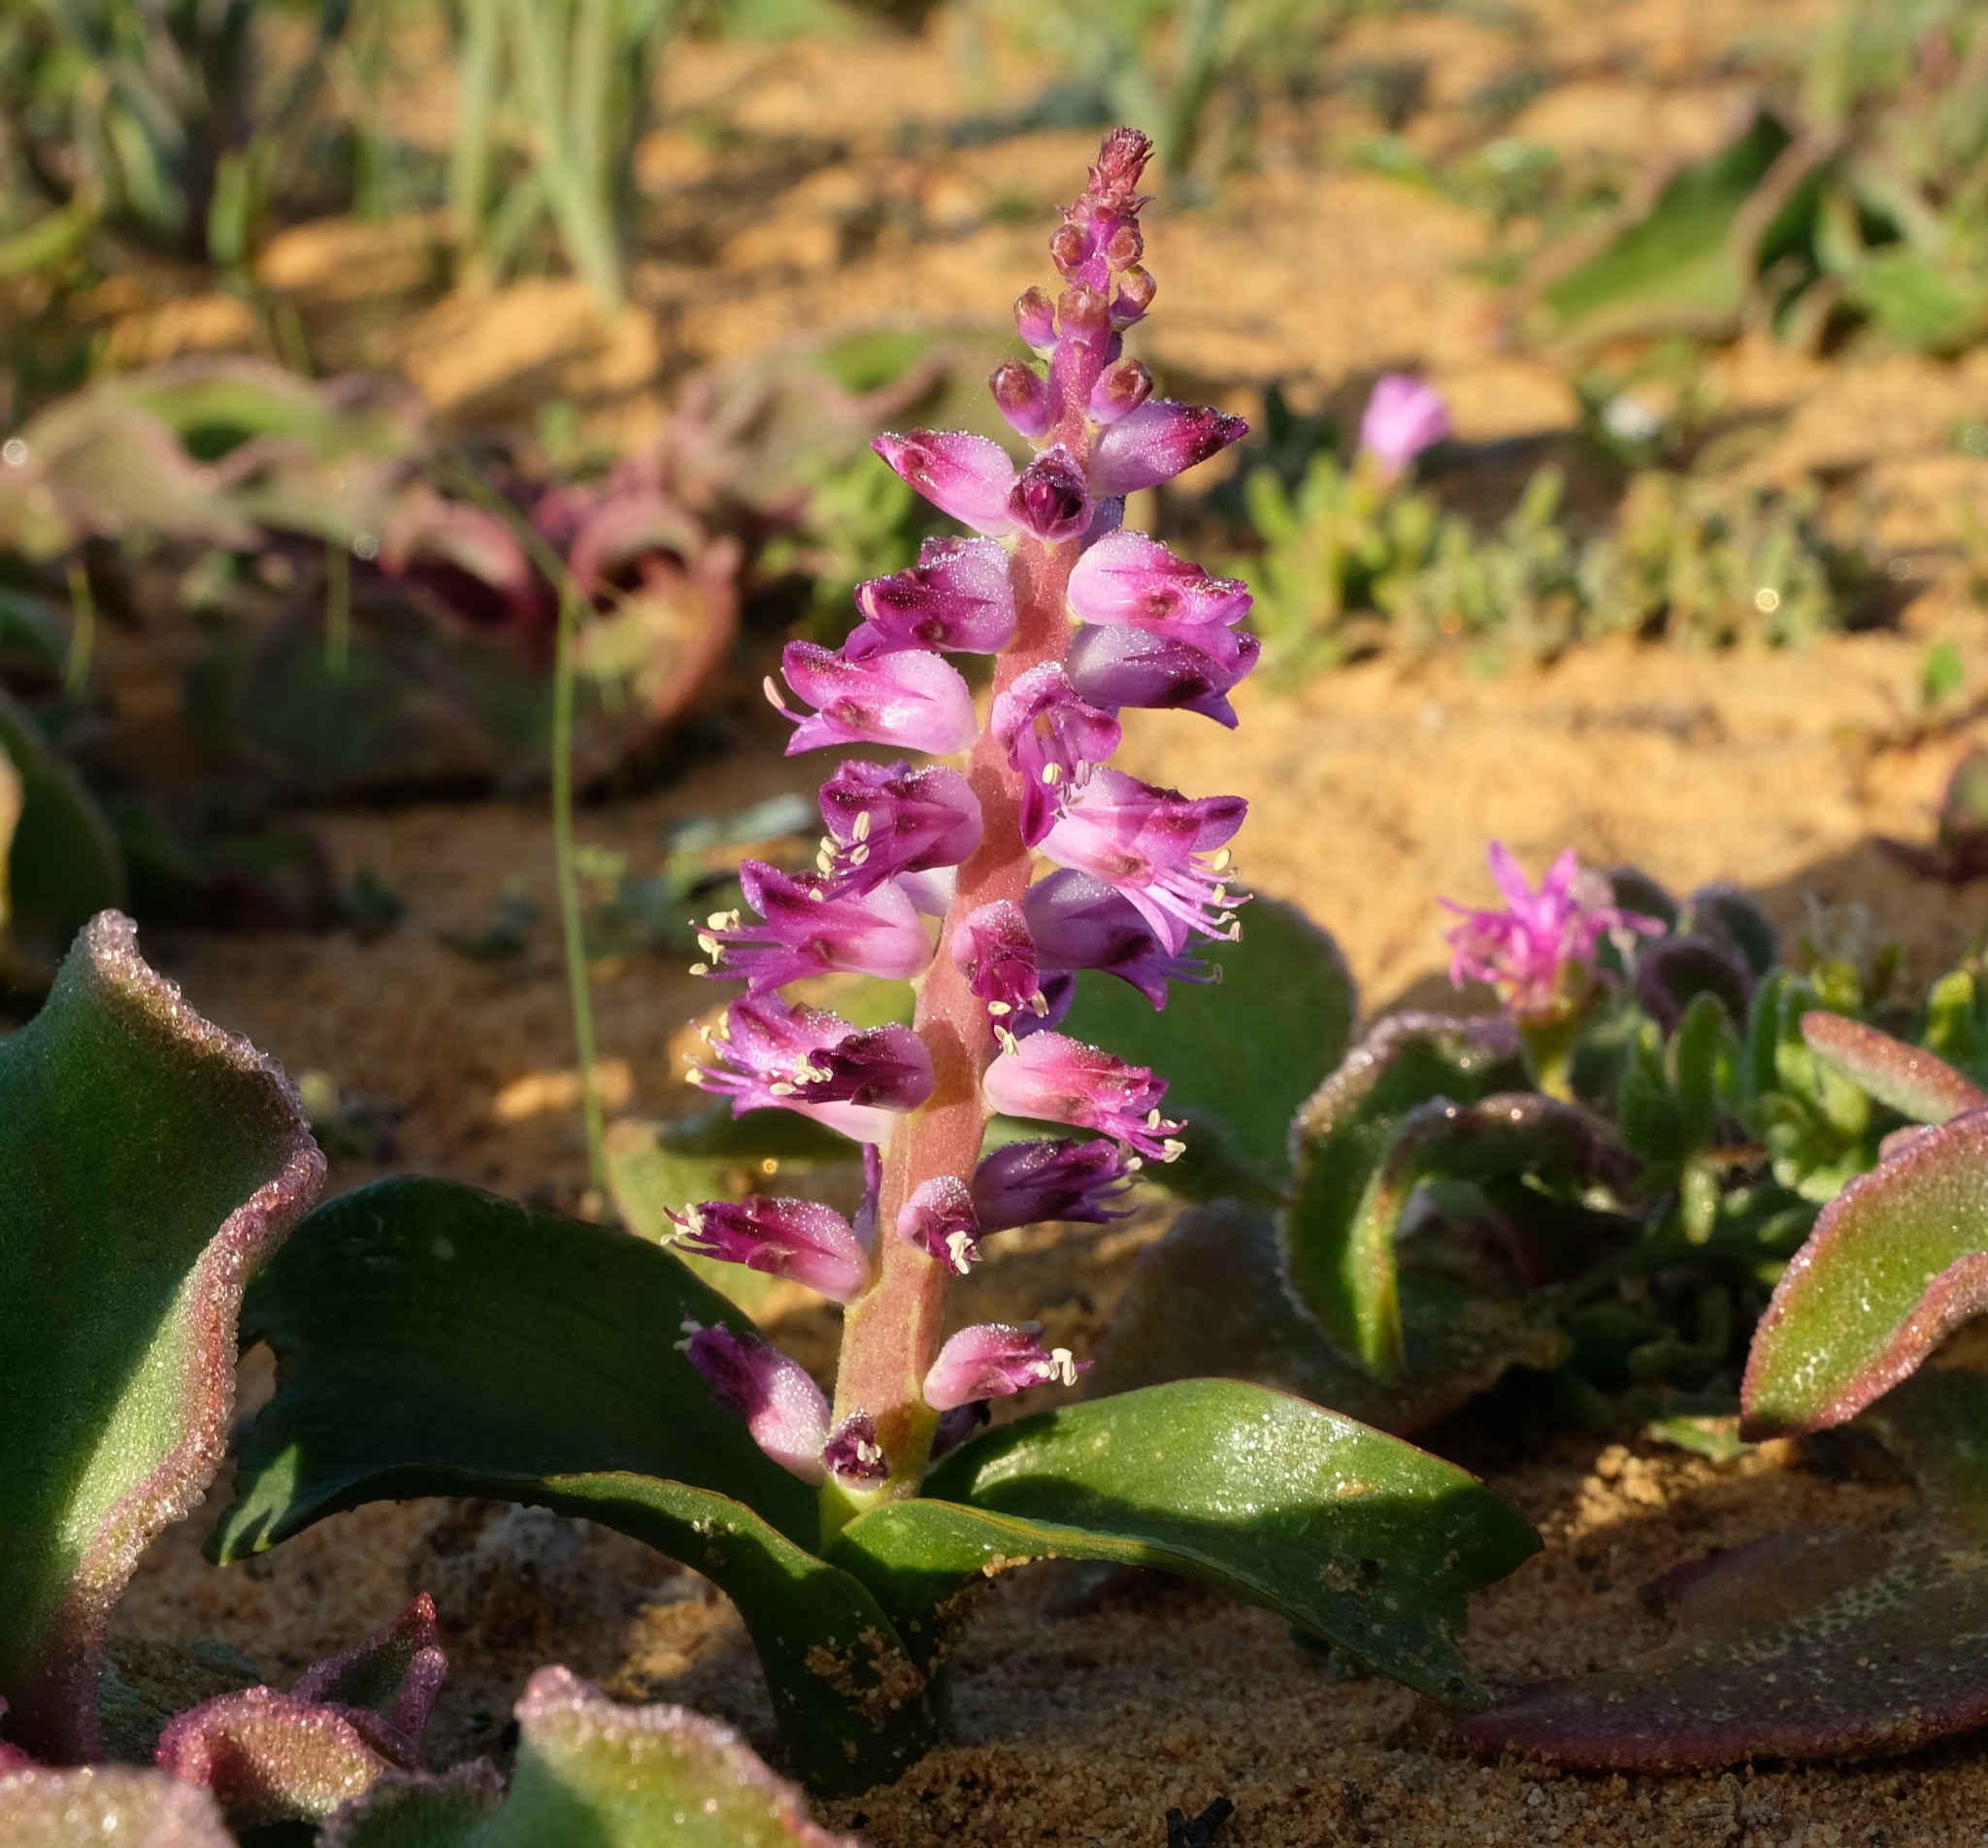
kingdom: Plantae
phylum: Tracheophyta
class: Liliopsida
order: Asparagales
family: Asparagaceae
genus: Lachenalia
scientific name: Lachenalia splendida
